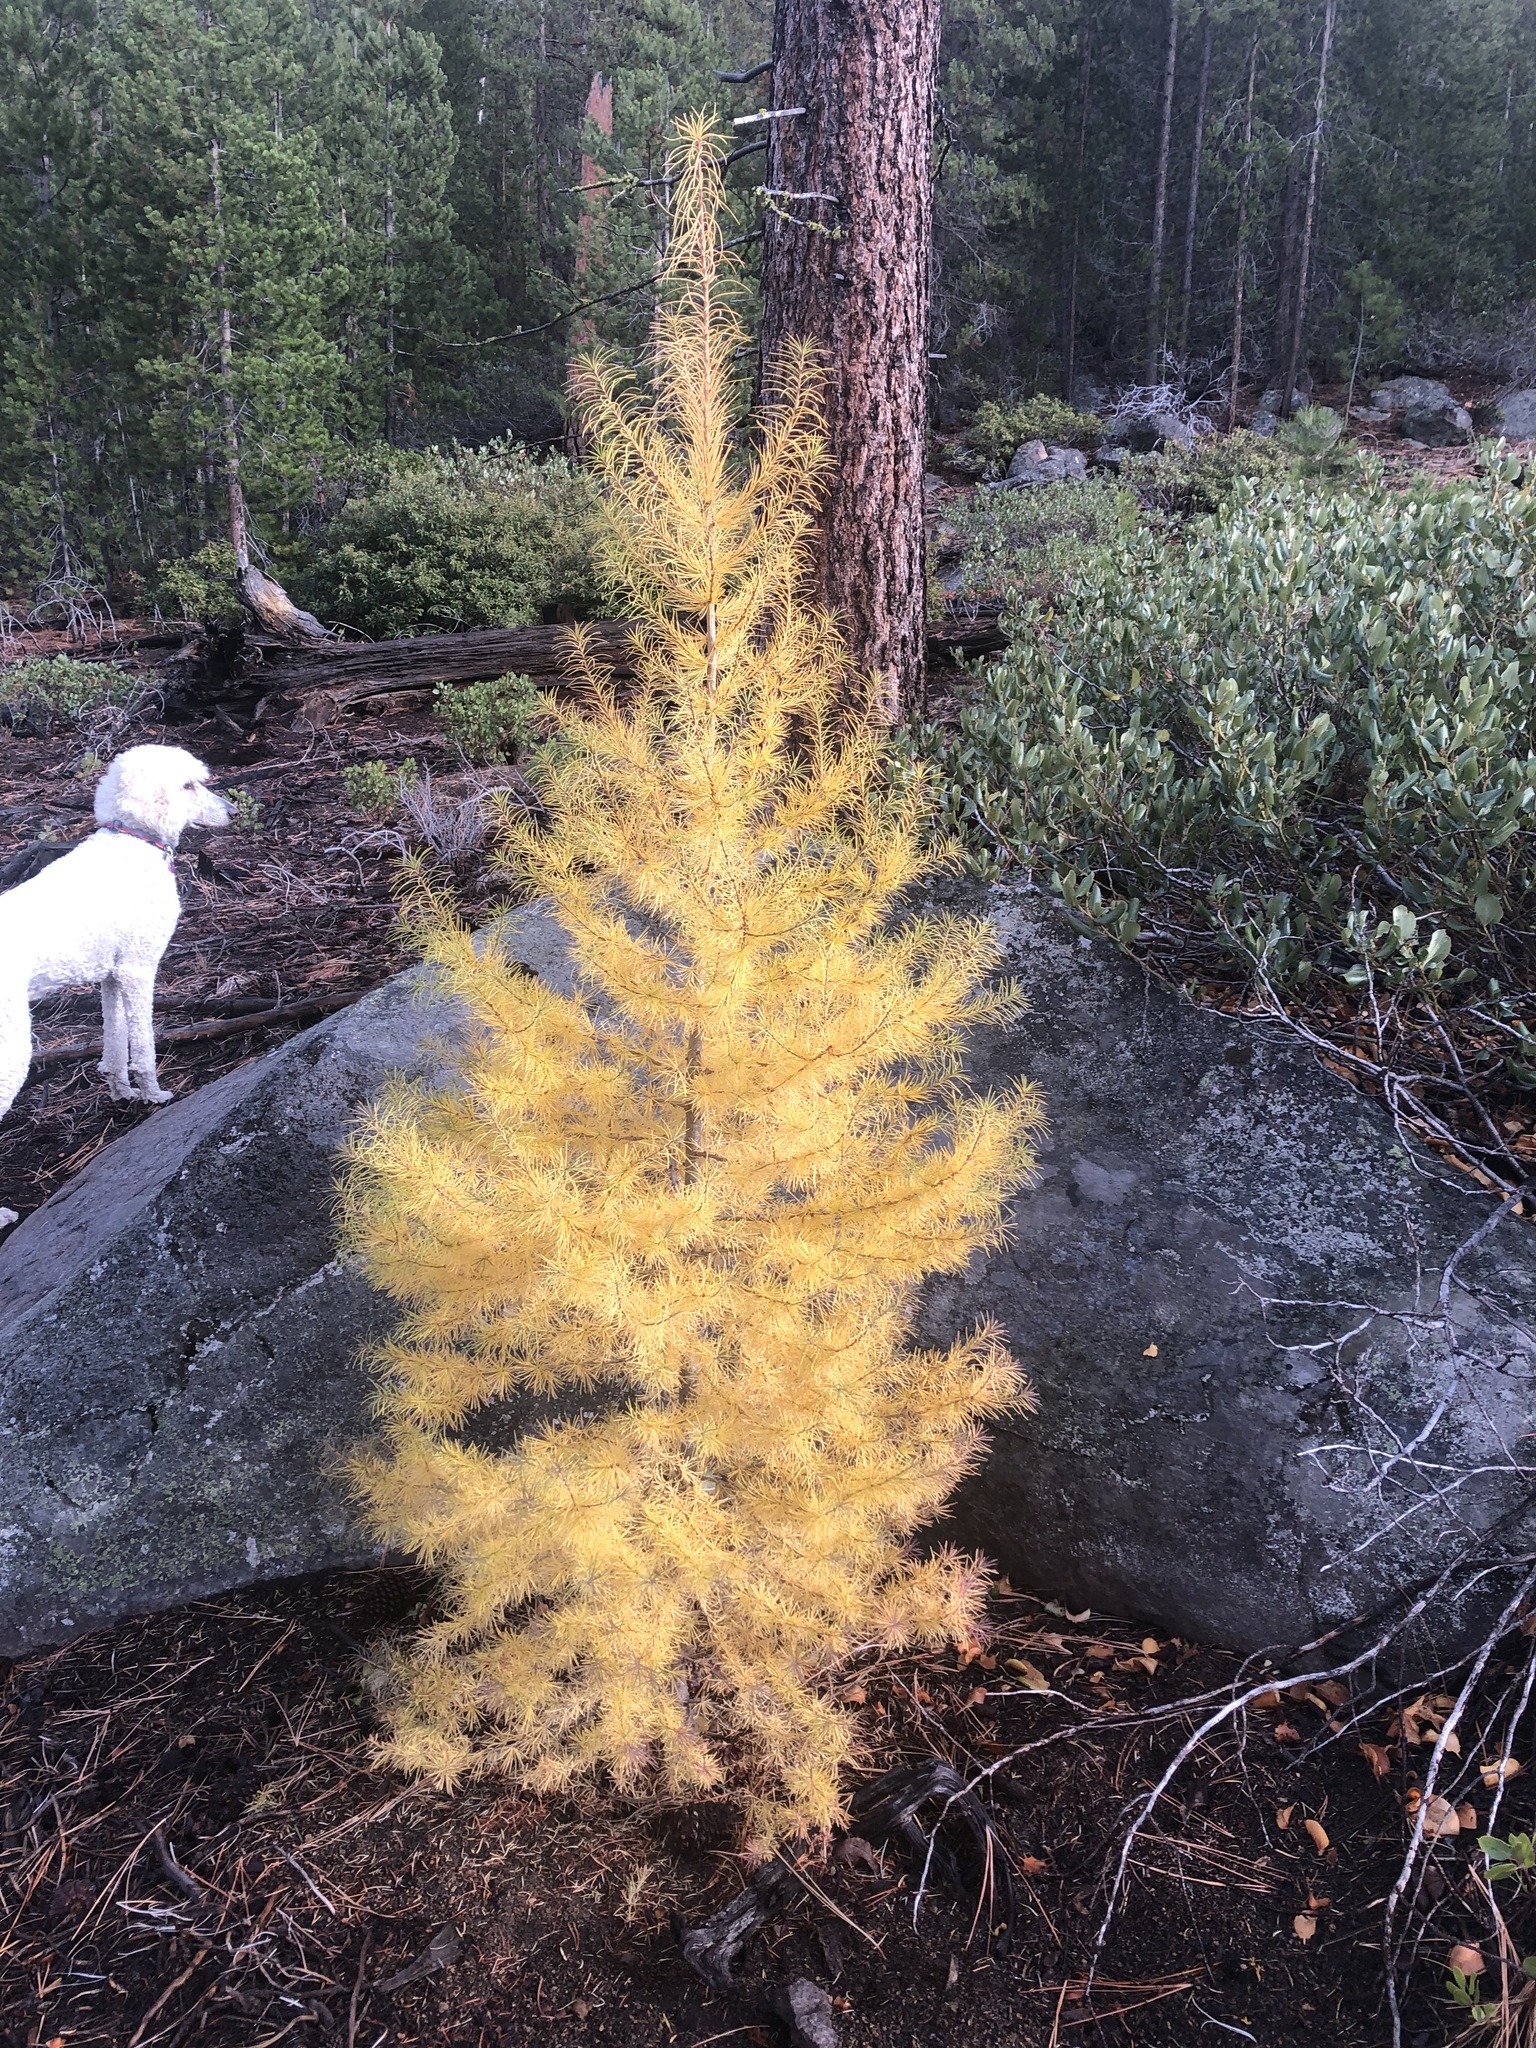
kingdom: Plantae
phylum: Tracheophyta
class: Pinopsida
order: Pinales
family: Pinaceae
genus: Larix
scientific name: Larix occidentalis
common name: Western larch
